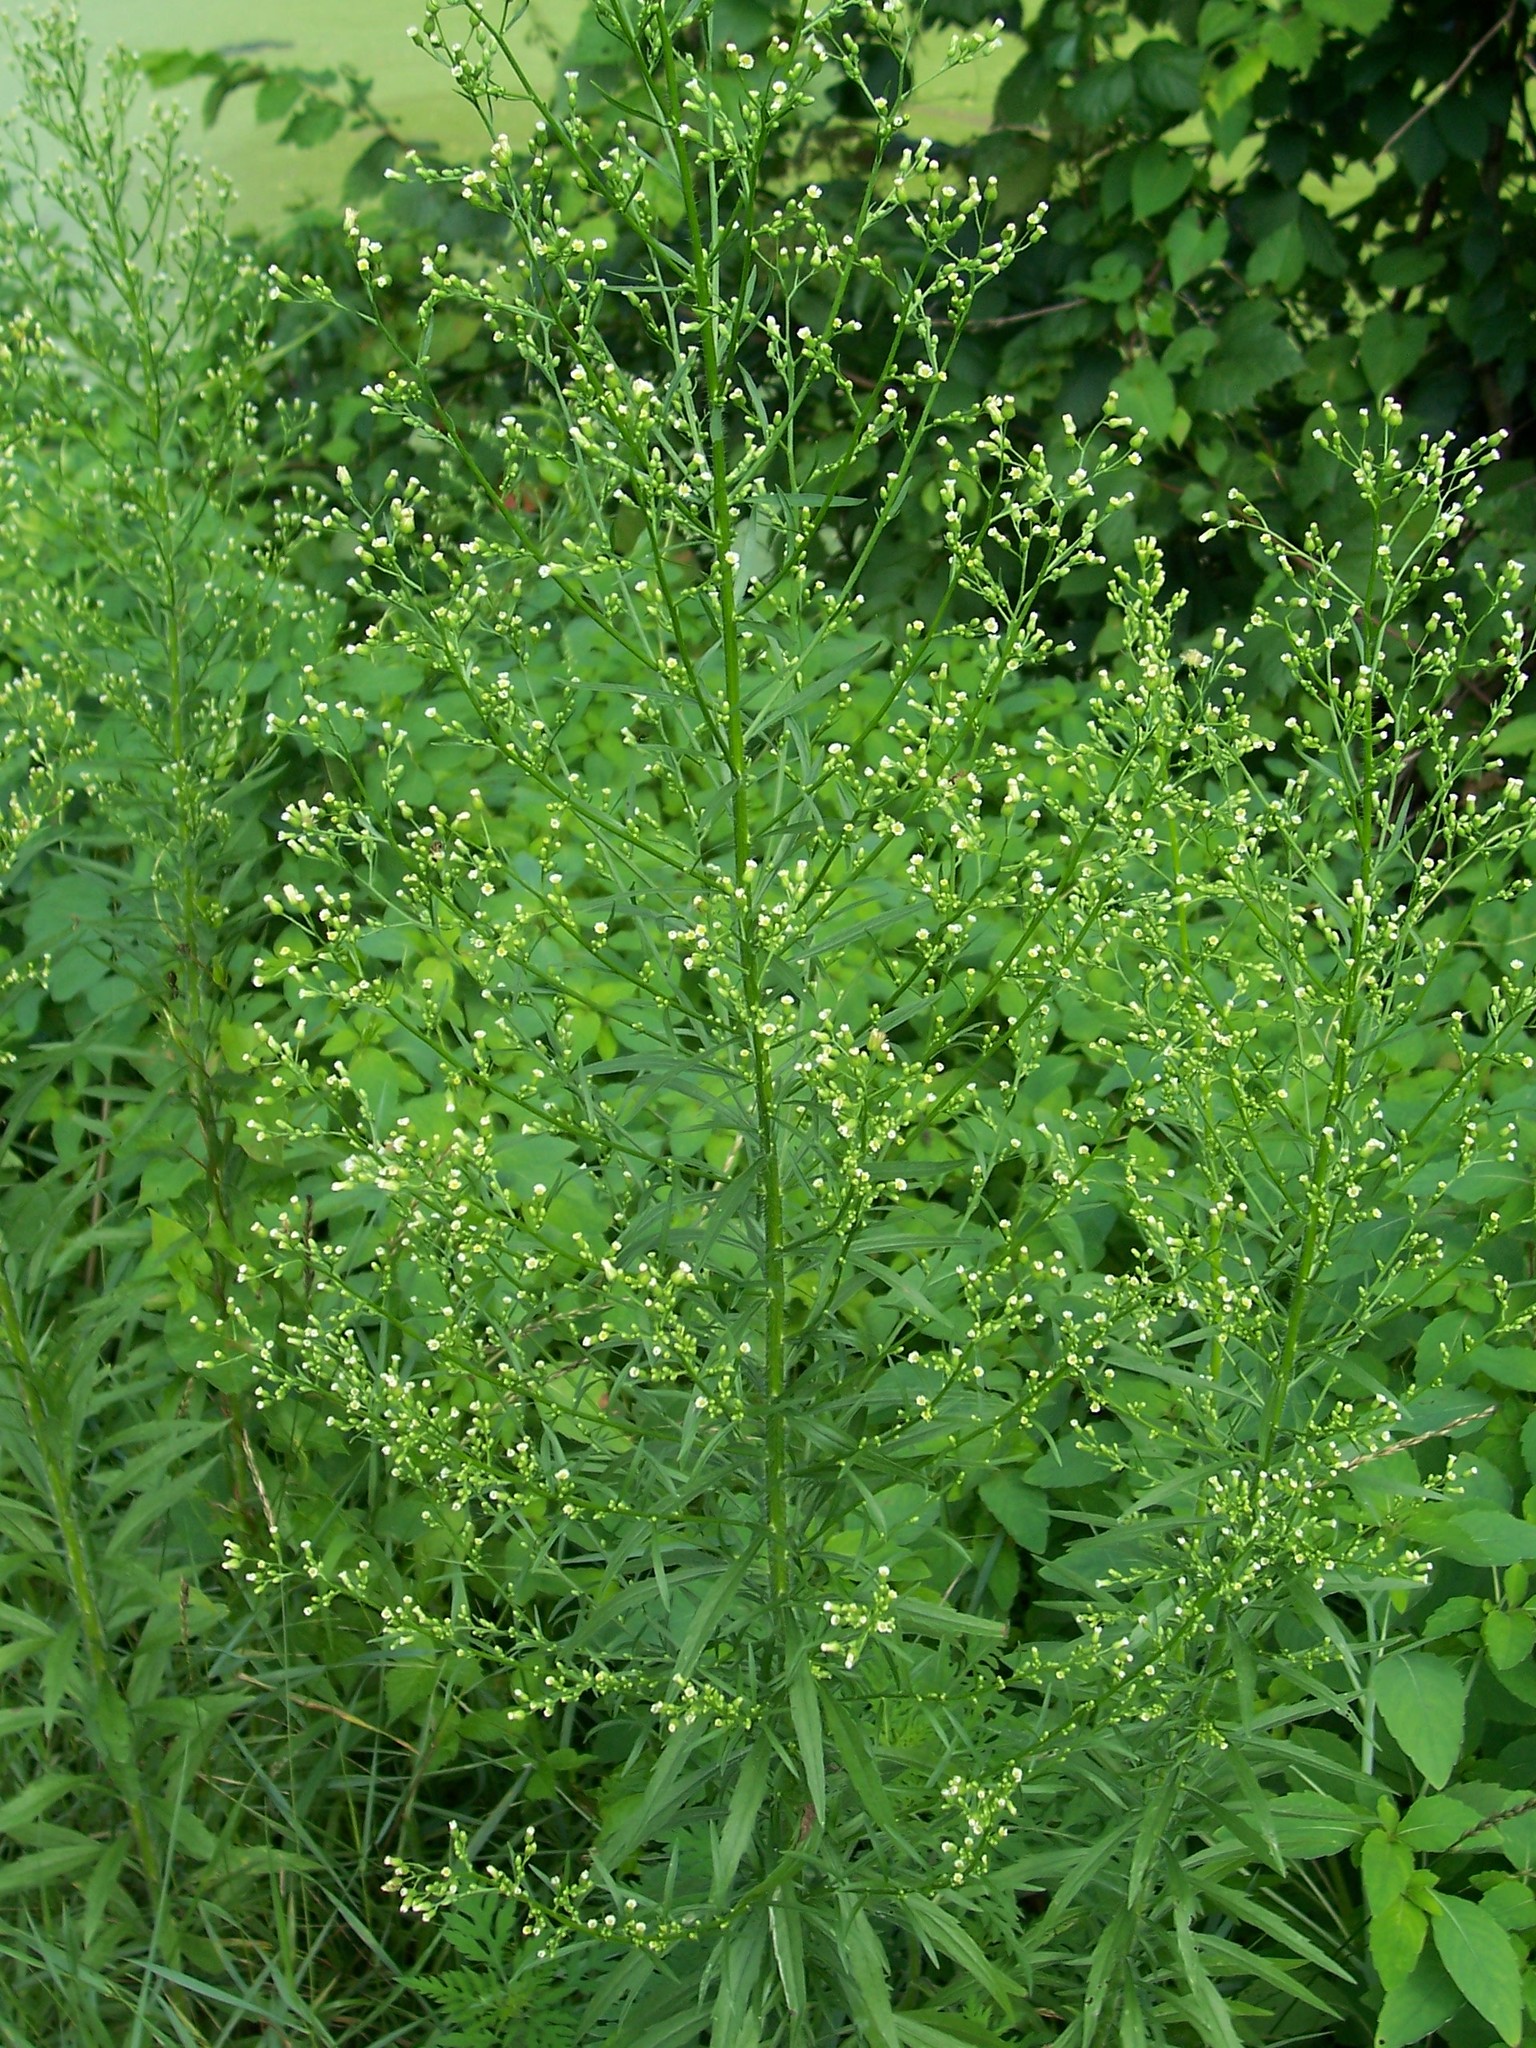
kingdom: Plantae
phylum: Tracheophyta
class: Magnoliopsida
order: Asterales
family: Asteraceae
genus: Erigeron
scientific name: Erigeron canadensis
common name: Canadian fleabane
